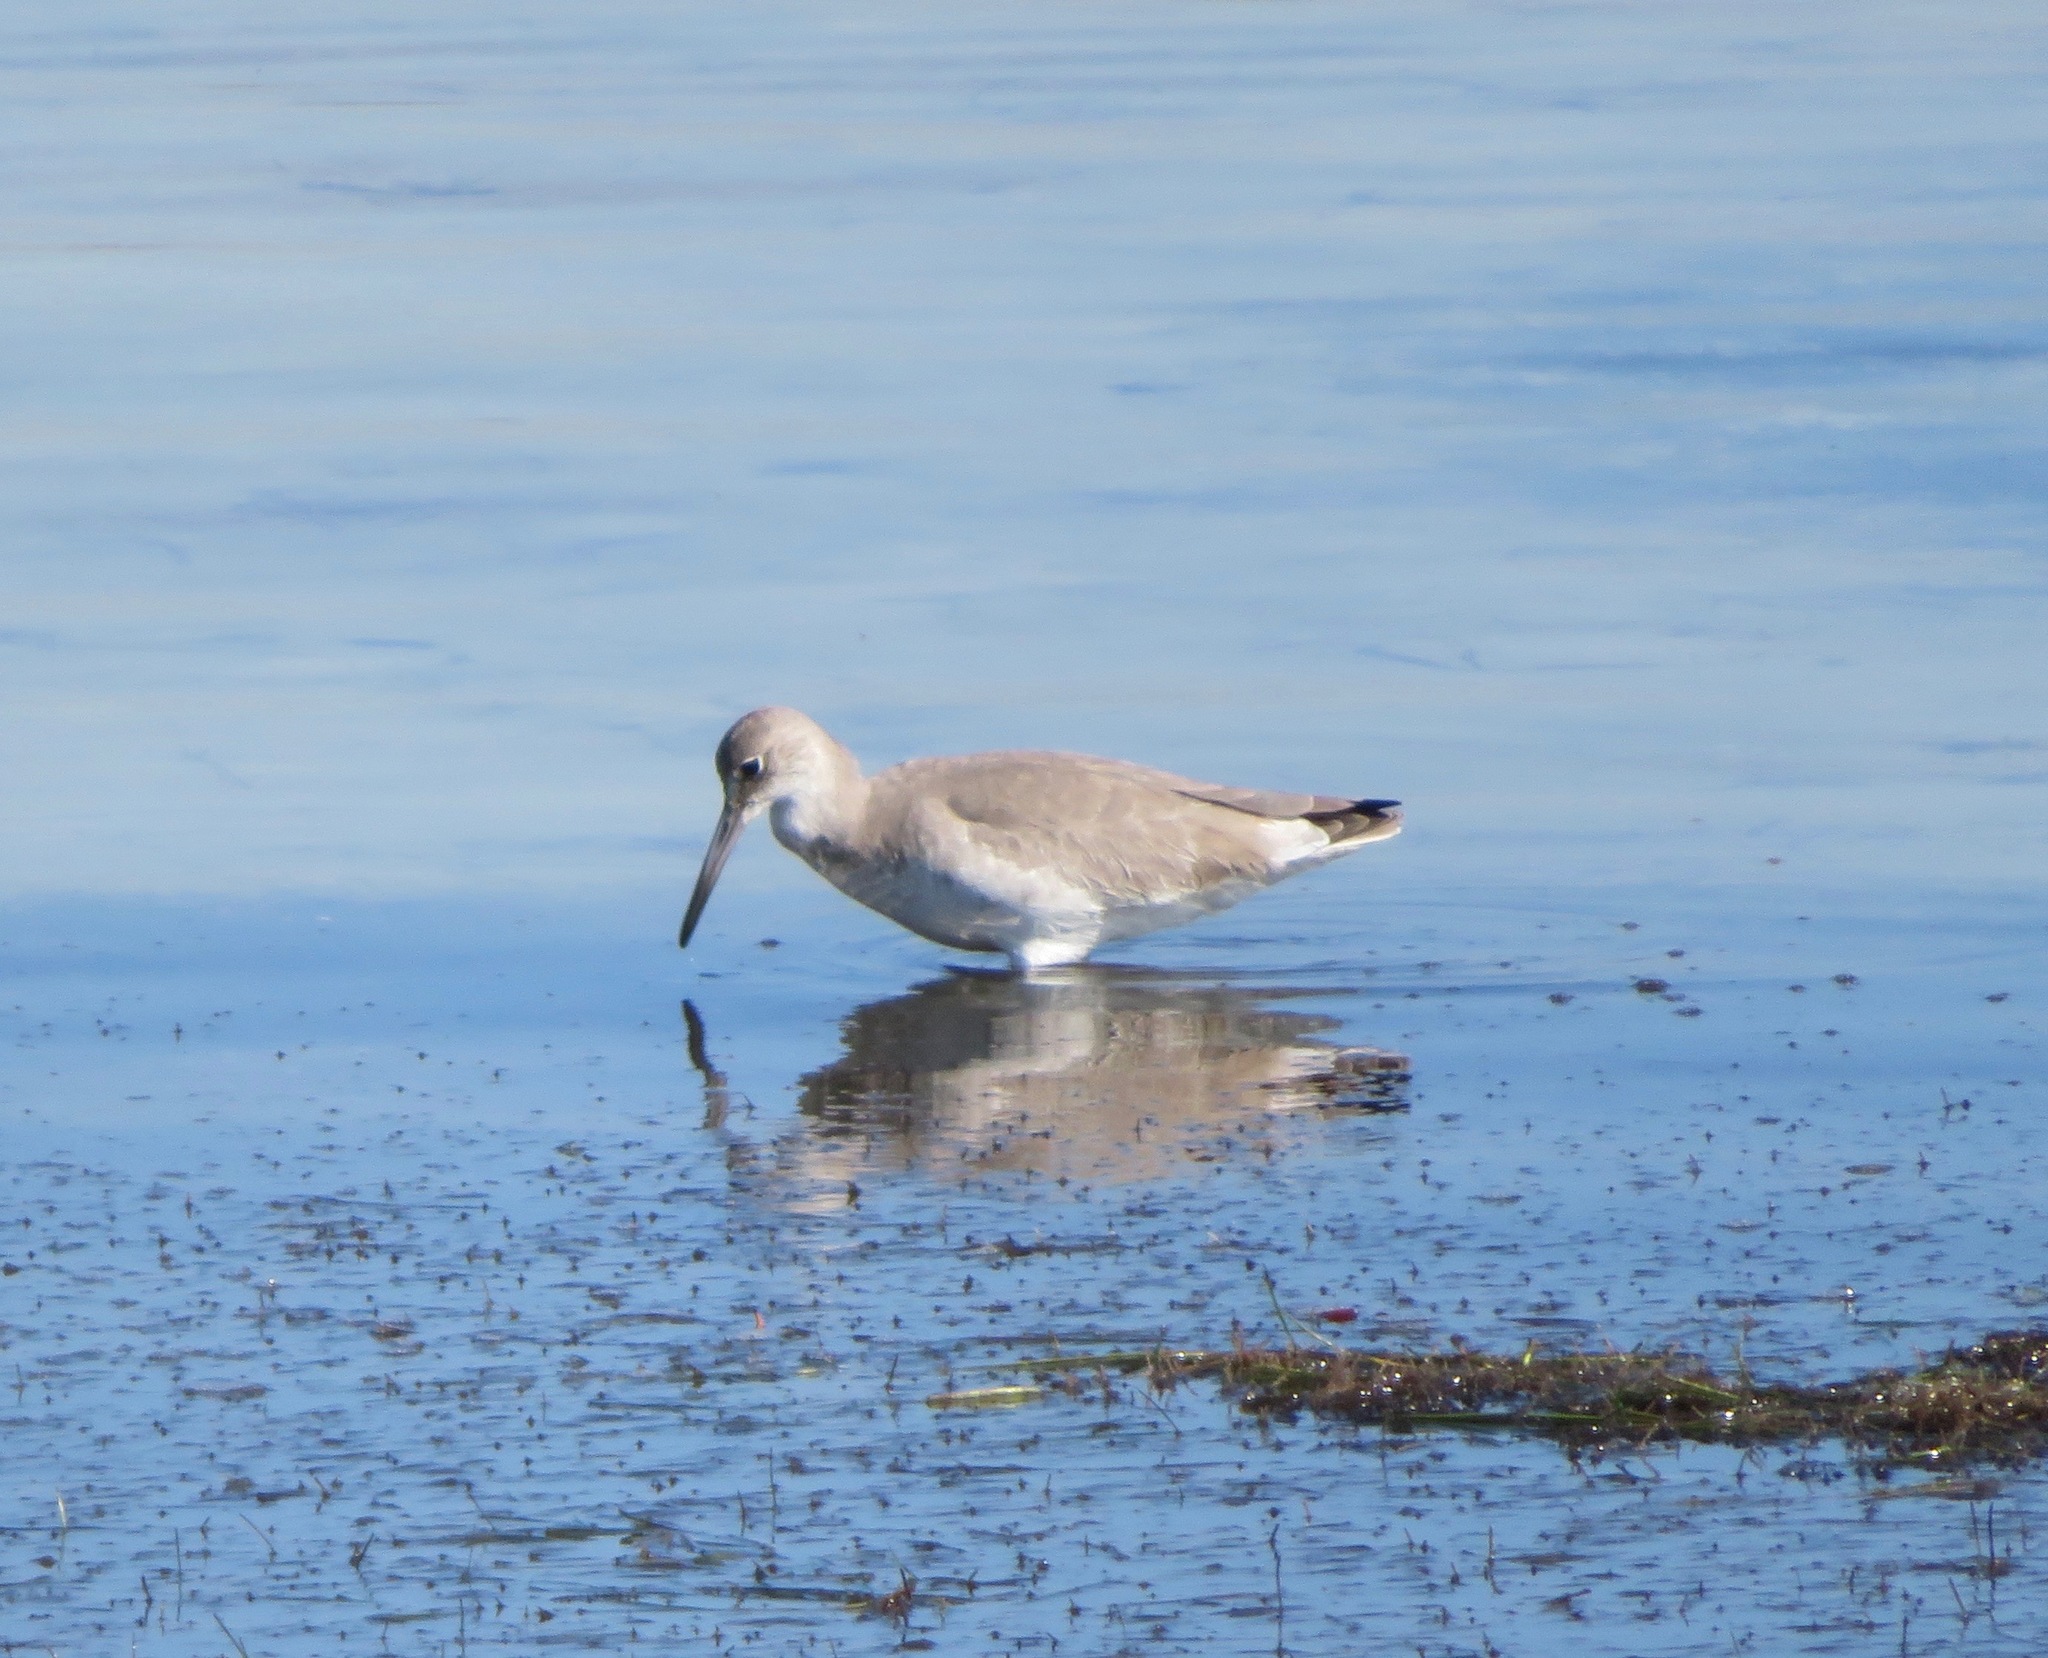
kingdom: Animalia
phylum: Chordata
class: Aves
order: Charadriiformes
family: Scolopacidae
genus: Tringa
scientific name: Tringa semipalmata
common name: Willet
